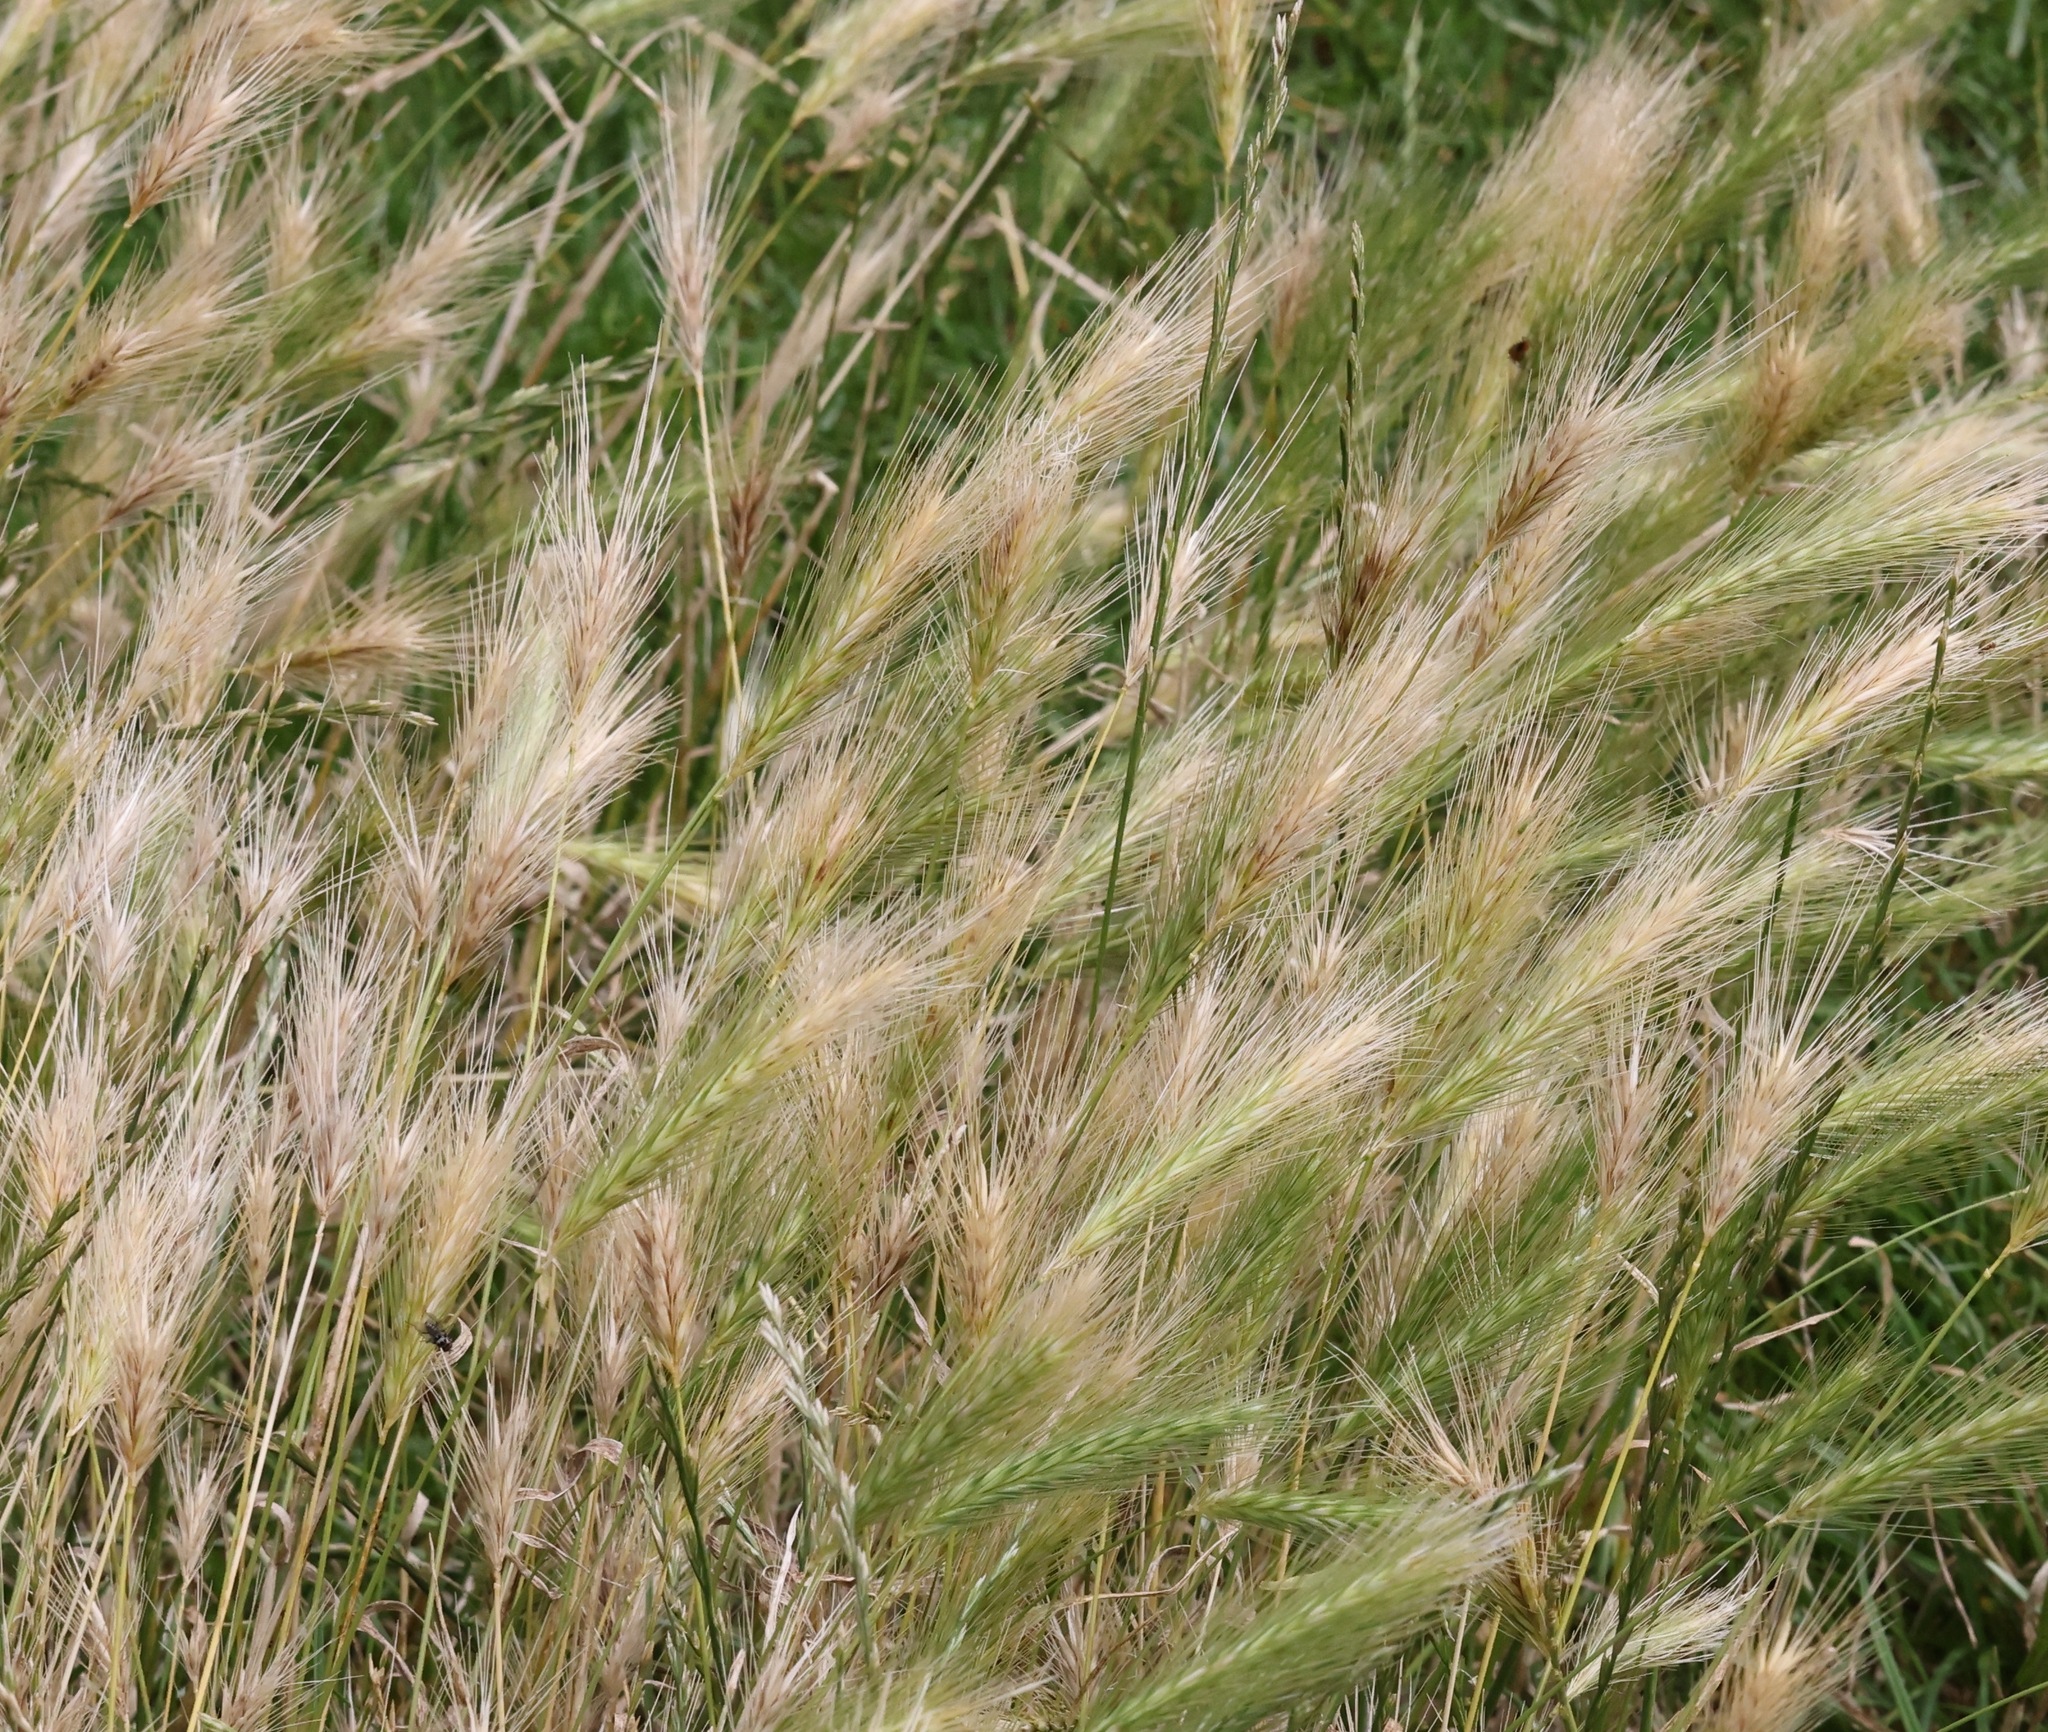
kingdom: Plantae
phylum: Tracheophyta
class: Liliopsida
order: Poales
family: Poaceae
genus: Hordeum
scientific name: Hordeum murinum
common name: Wall barley
